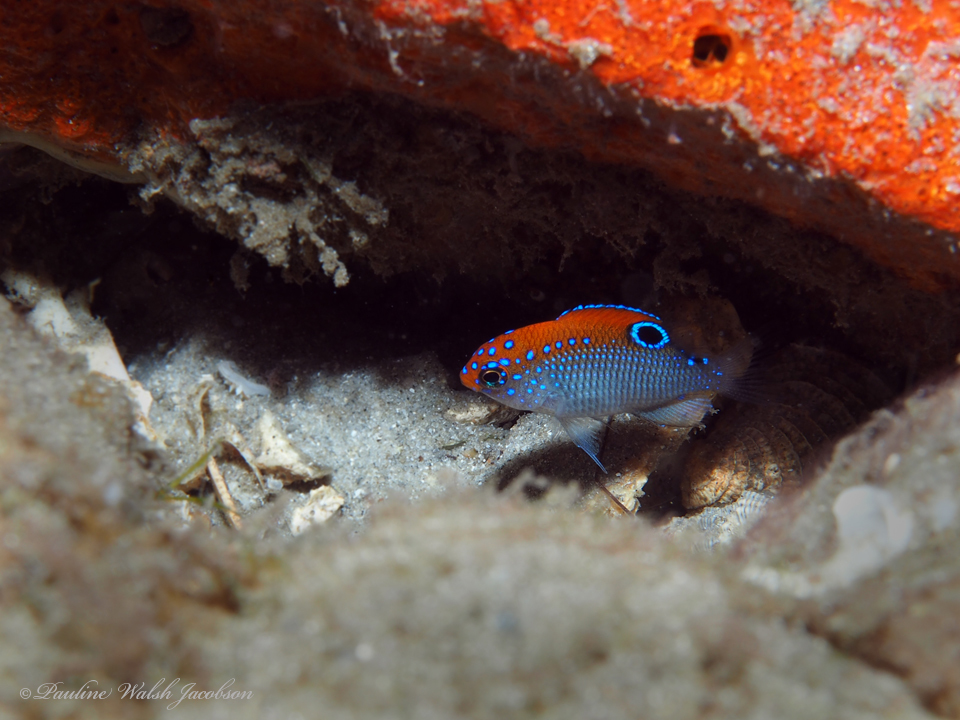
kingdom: Animalia
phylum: Chordata
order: Perciformes
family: Pomacentridae
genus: Stegastes
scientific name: Stegastes adustus
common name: Dusky damselfish
